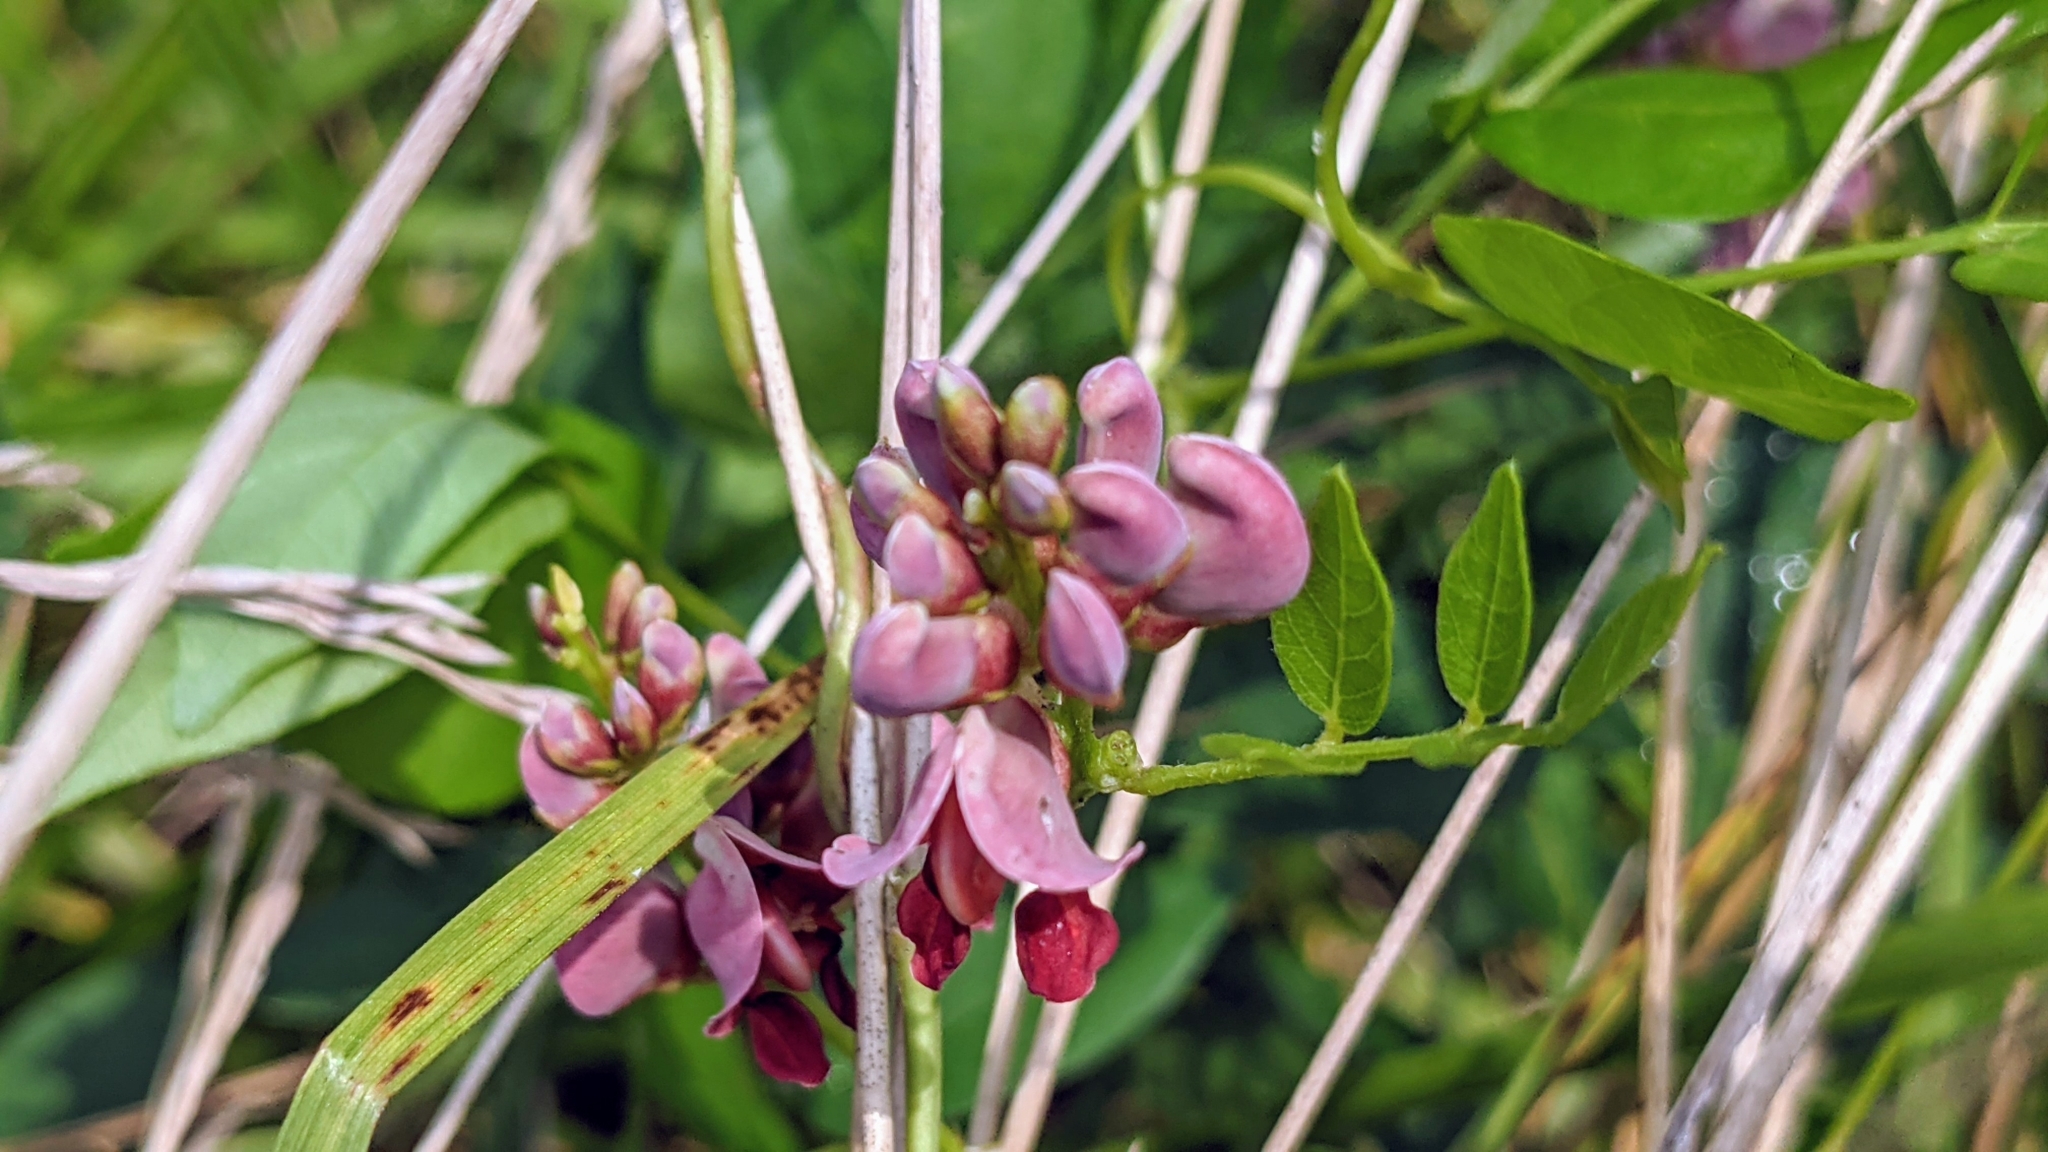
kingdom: Plantae
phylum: Tracheophyta
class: Magnoliopsida
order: Fabales
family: Fabaceae
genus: Apios
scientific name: Apios americana
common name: American potato-bean
